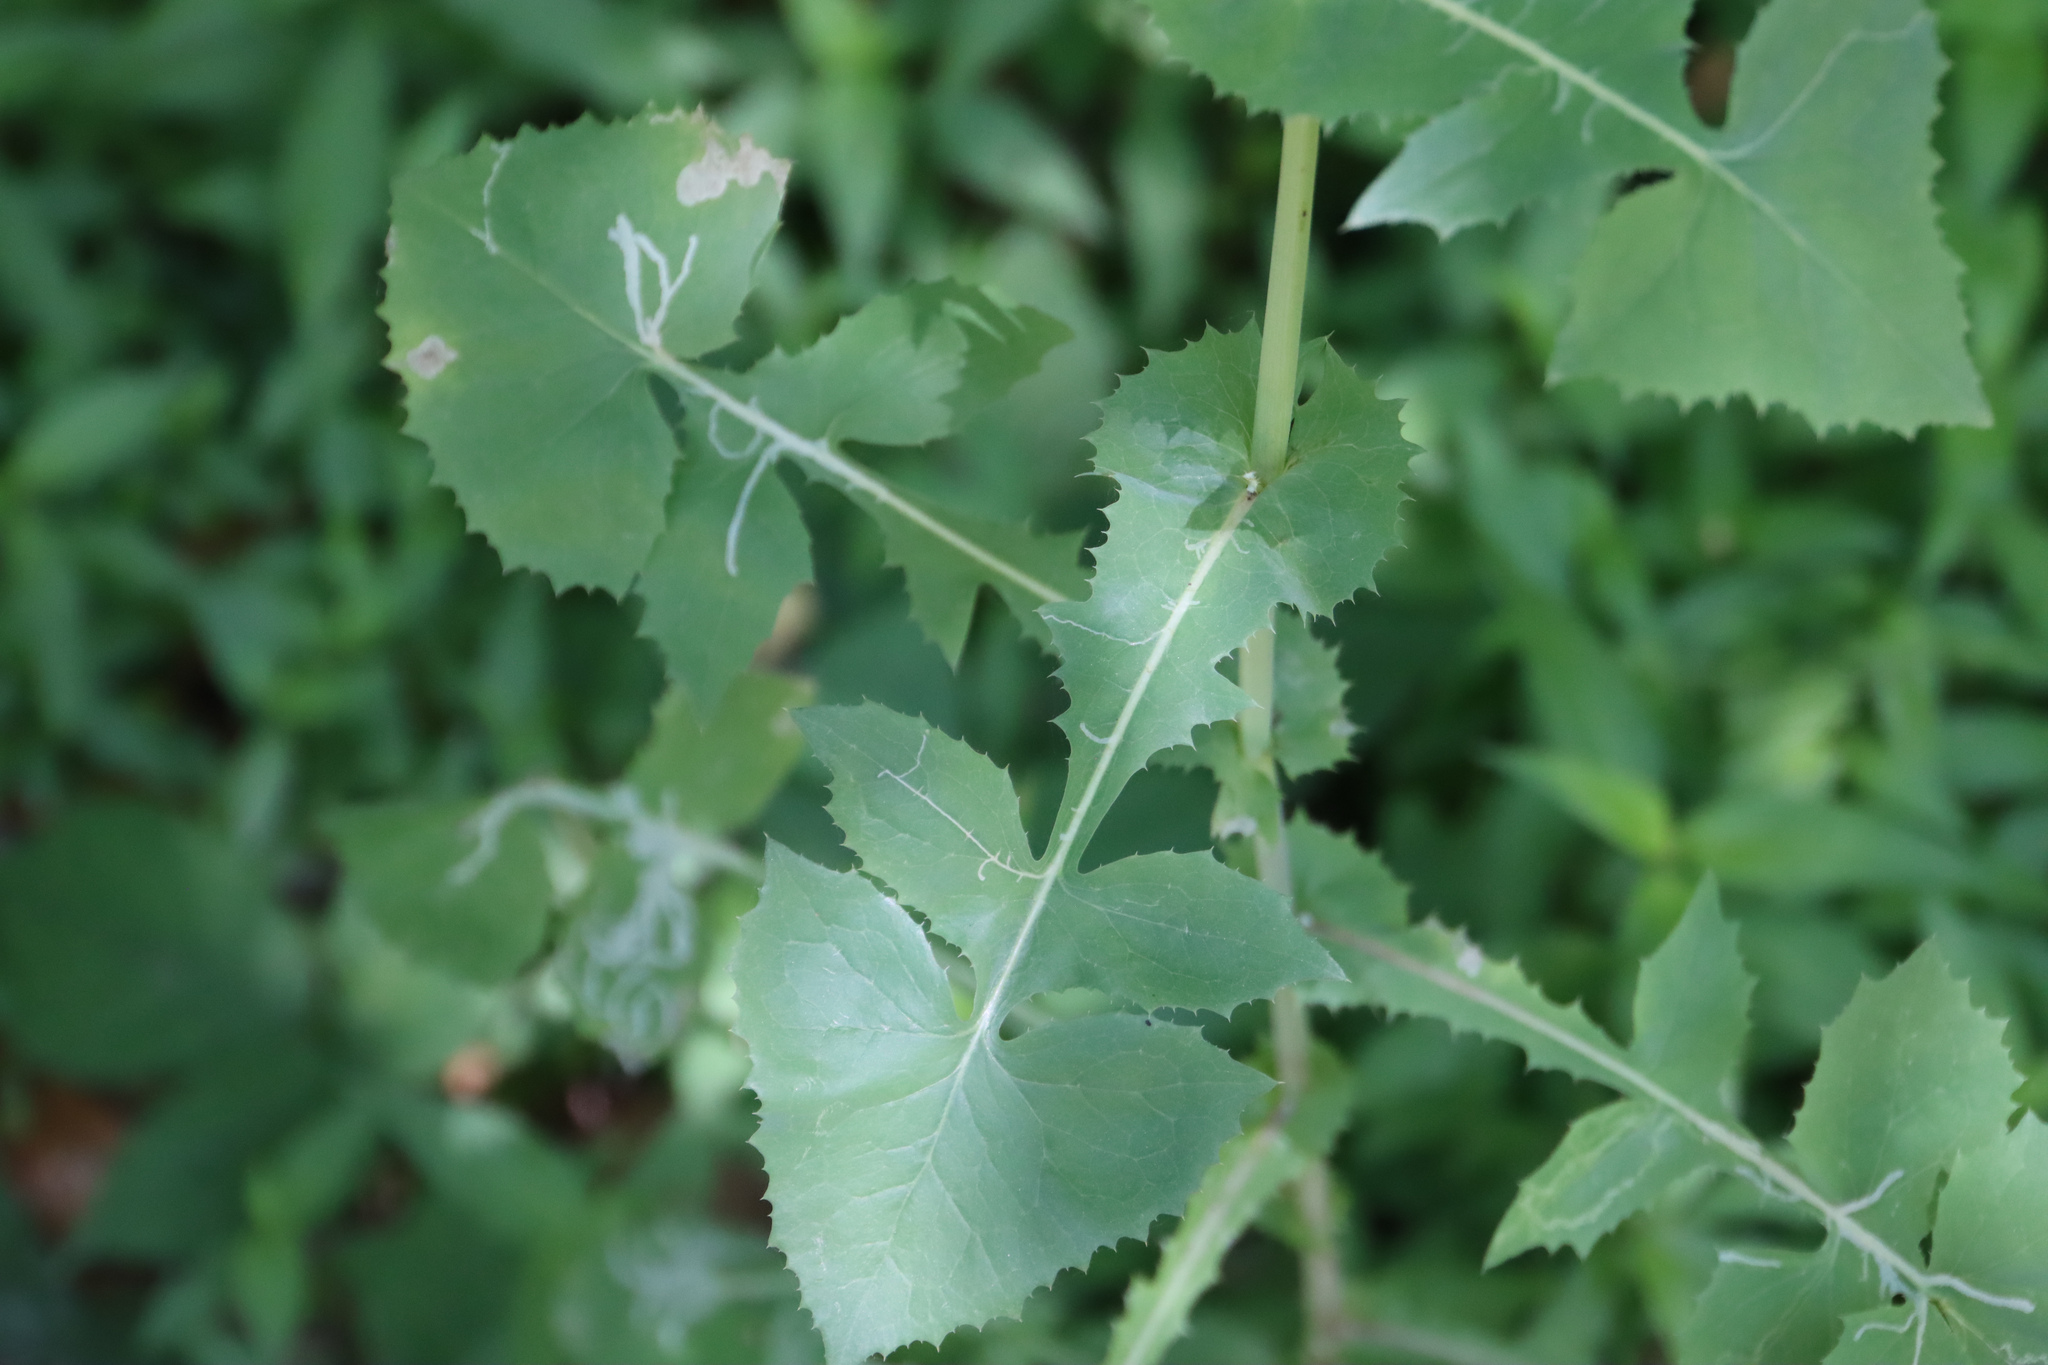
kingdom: Plantae
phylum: Tracheophyta
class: Magnoliopsida
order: Asterales
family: Asteraceae
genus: Sonchus
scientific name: Sonchus oleraceus
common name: Common sowthistle
